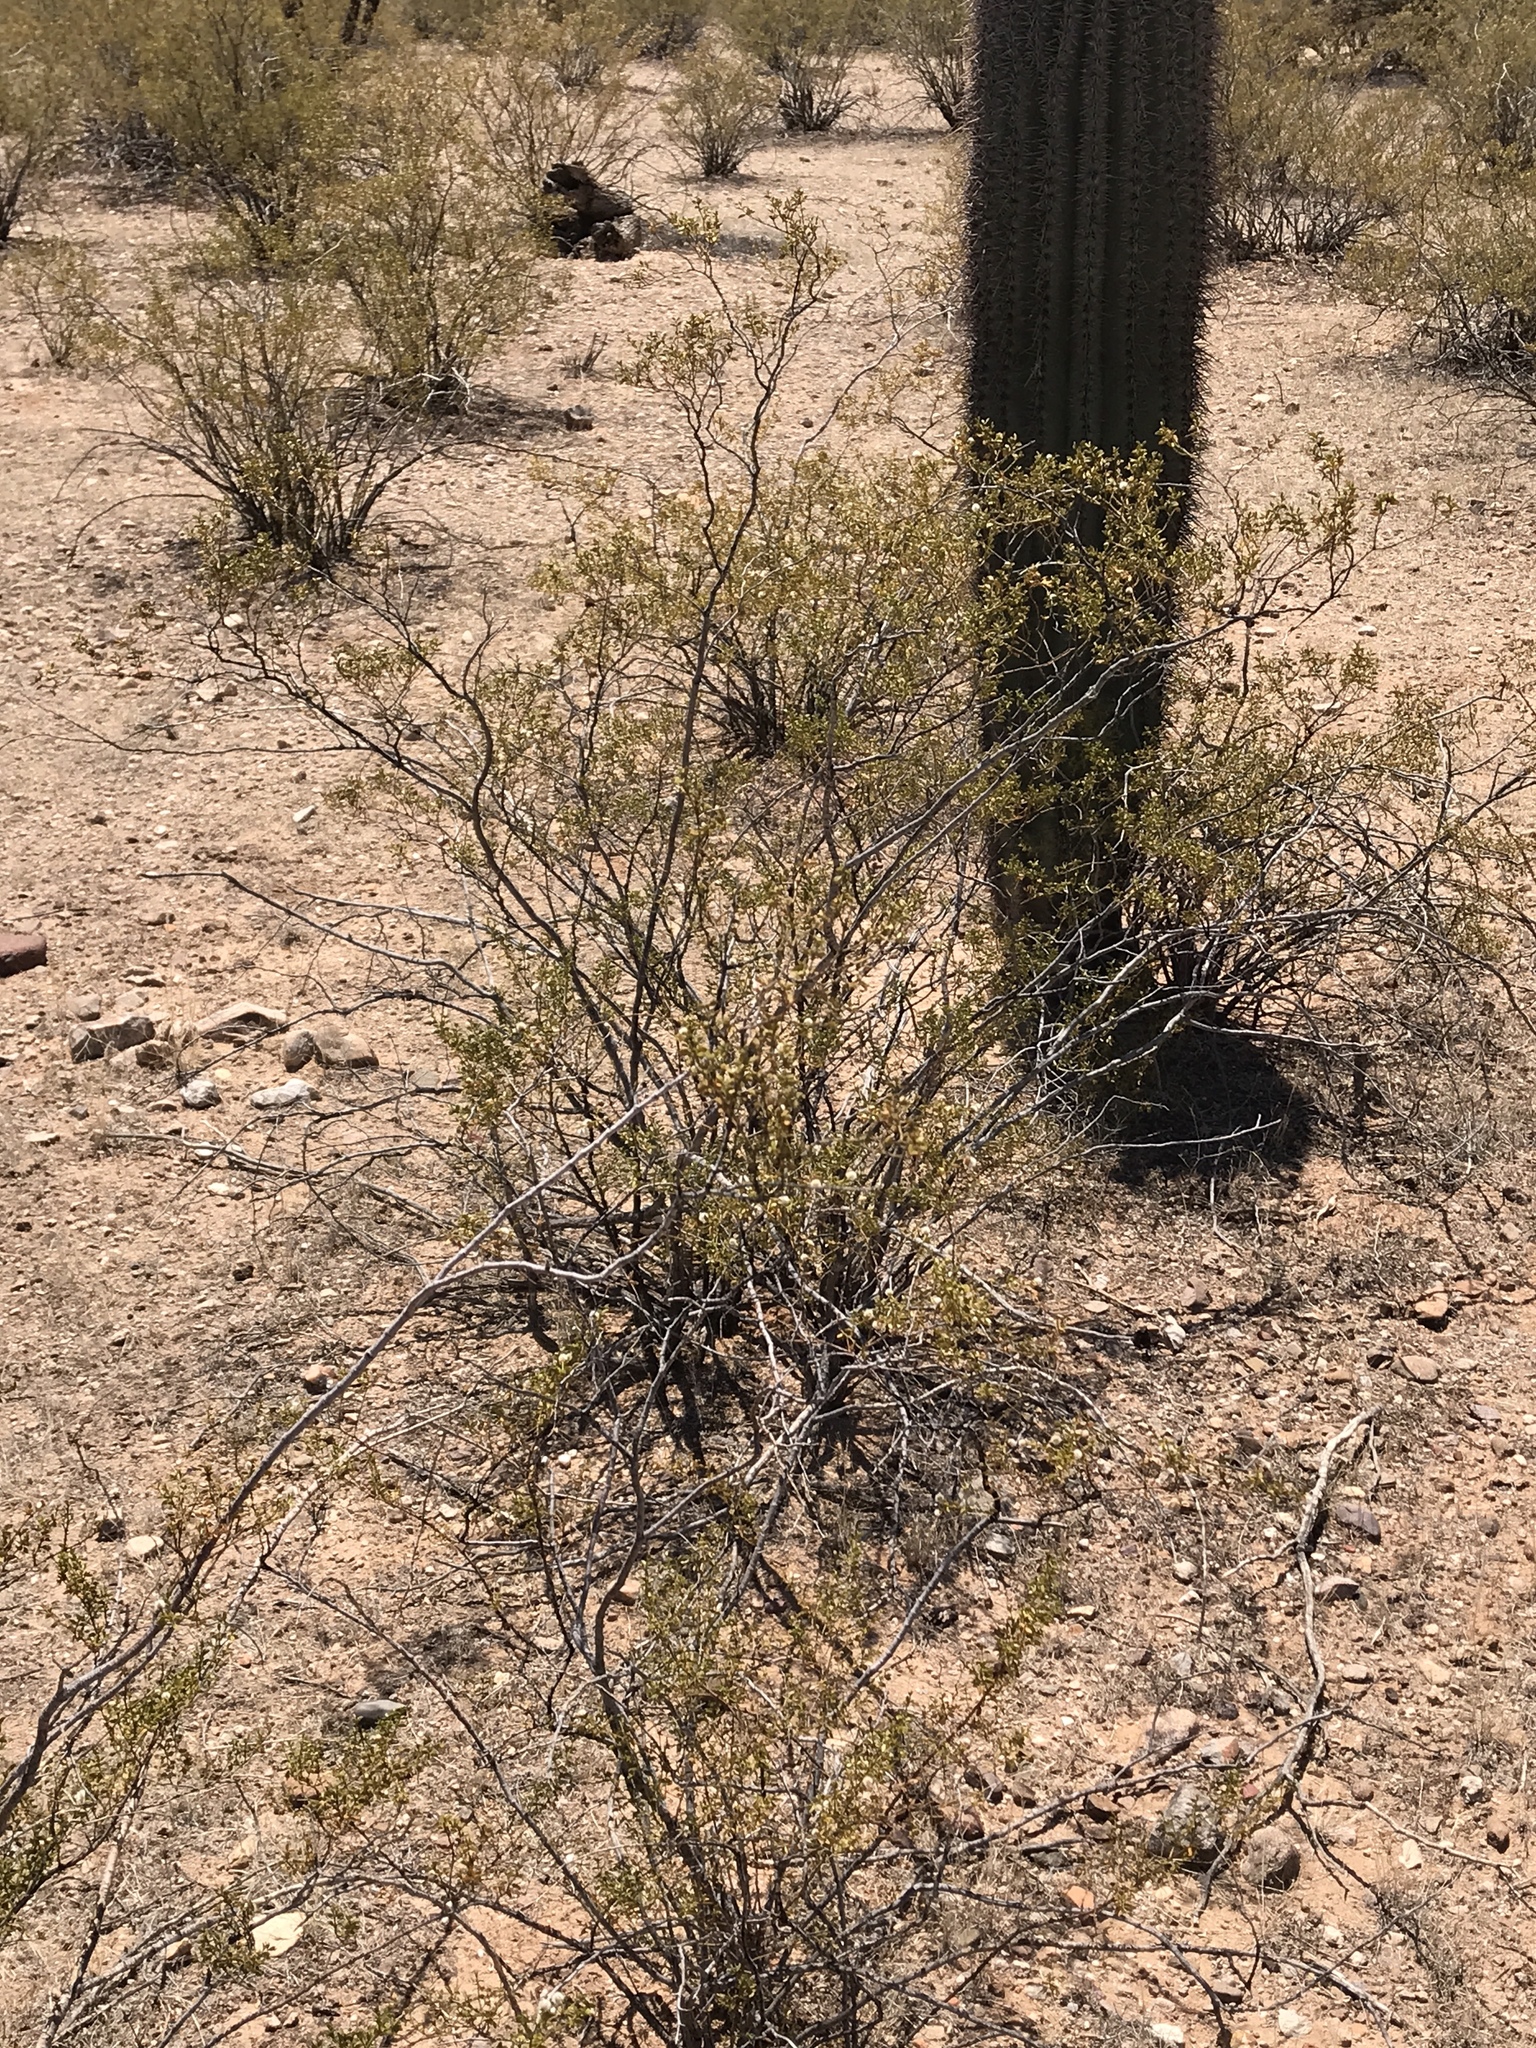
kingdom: Plantae
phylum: Tracheophyta
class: Magnoliopsida
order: Zygophyllales
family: Zygophyllaceae
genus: Larrea
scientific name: Larrea tridentata
